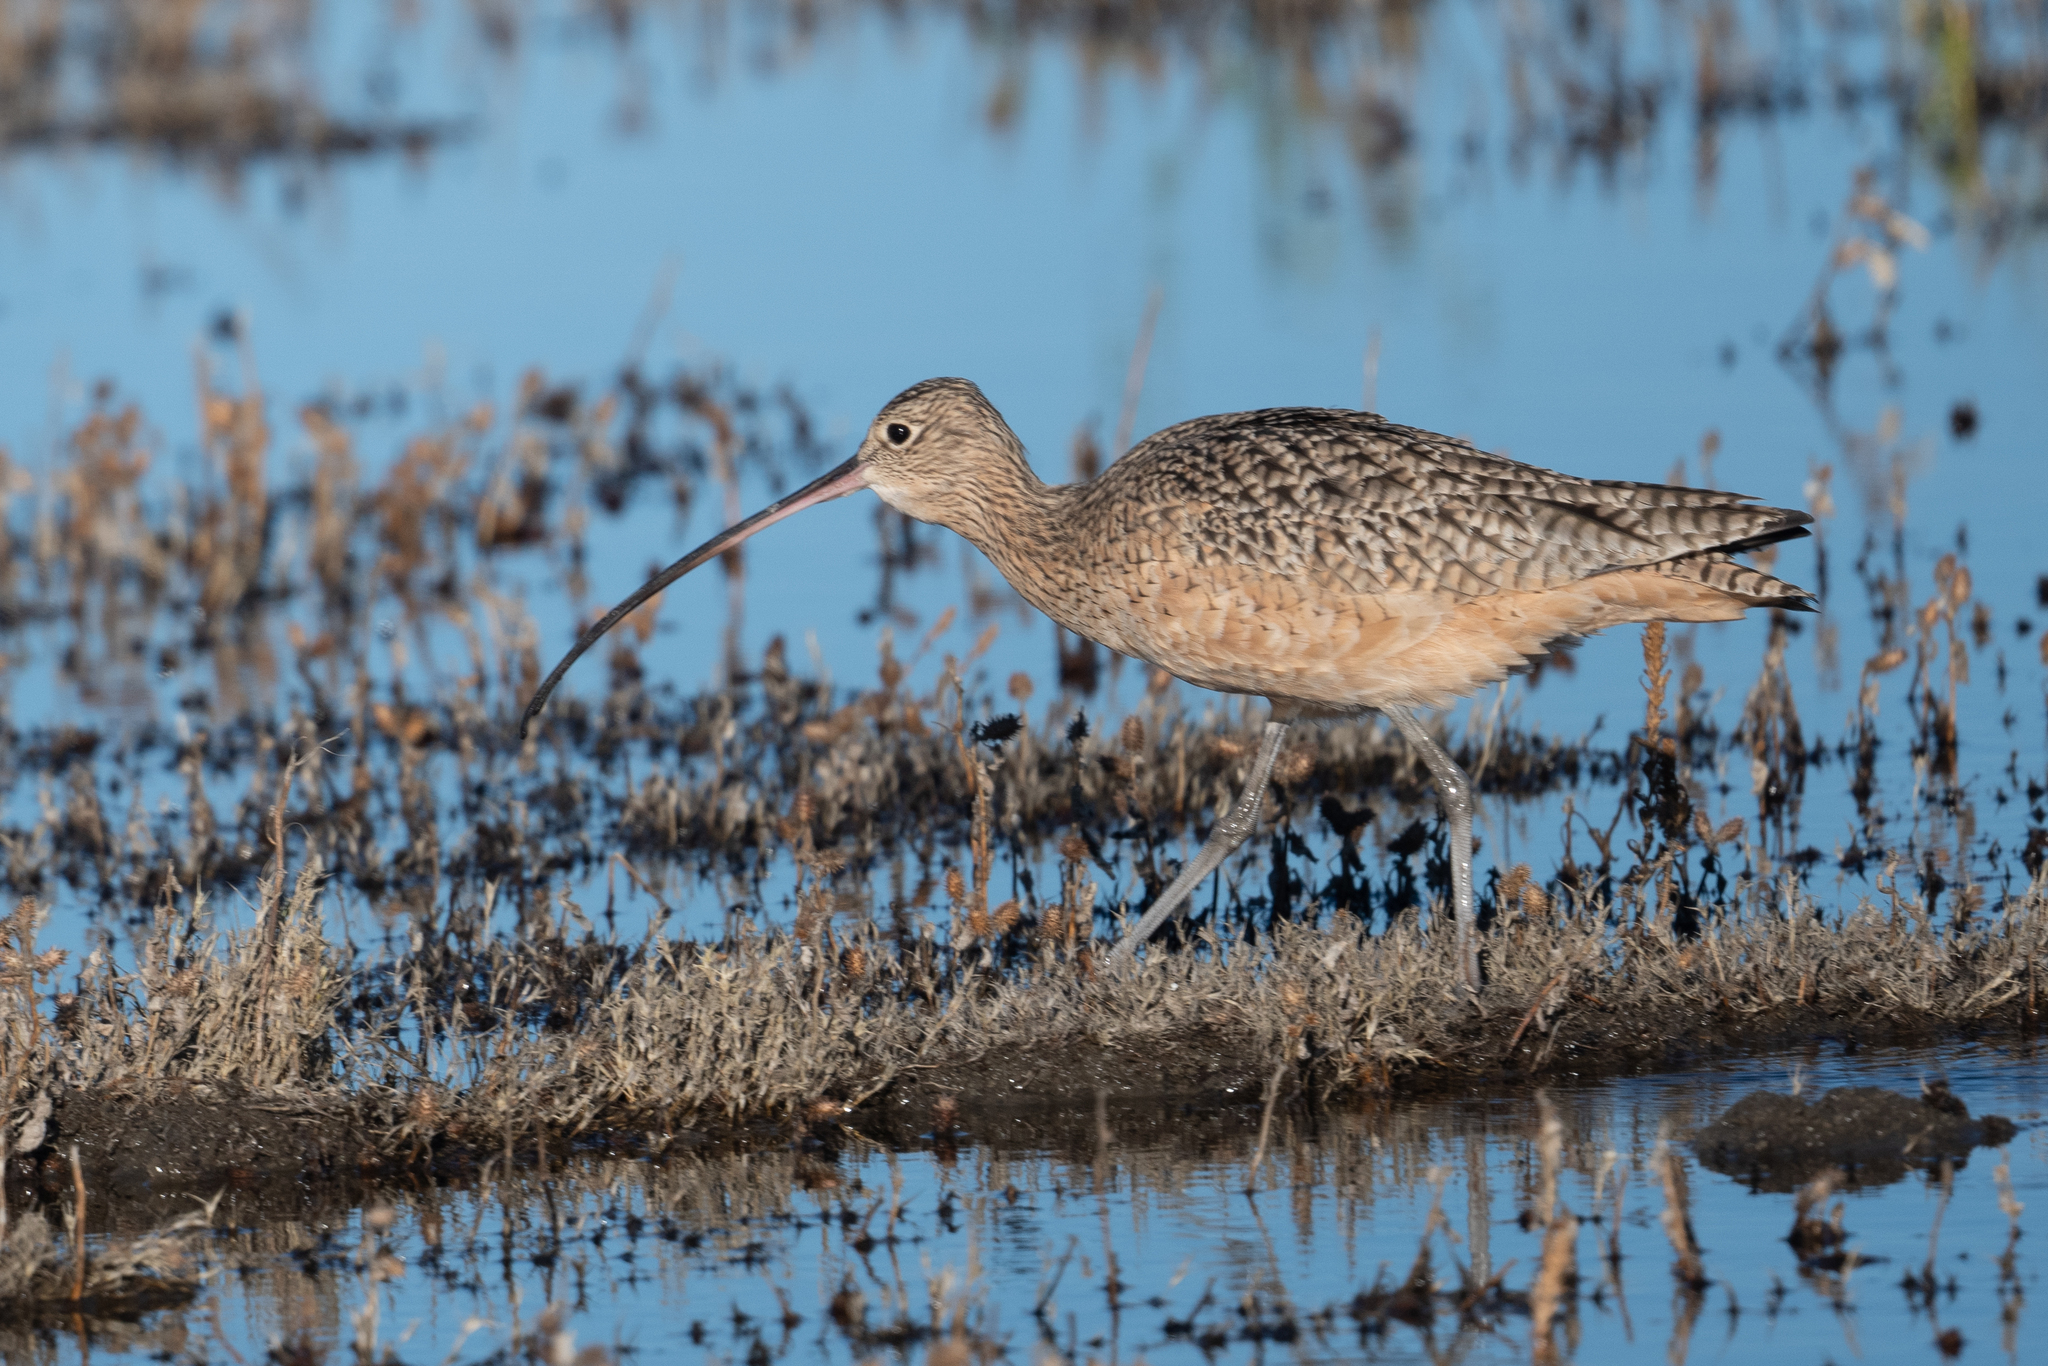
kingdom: Animalia
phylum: Chordata
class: Aves
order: Charadriiformes
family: Scolopacidae
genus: Numenius
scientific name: Numenius americanus
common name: Long-billed curlew
